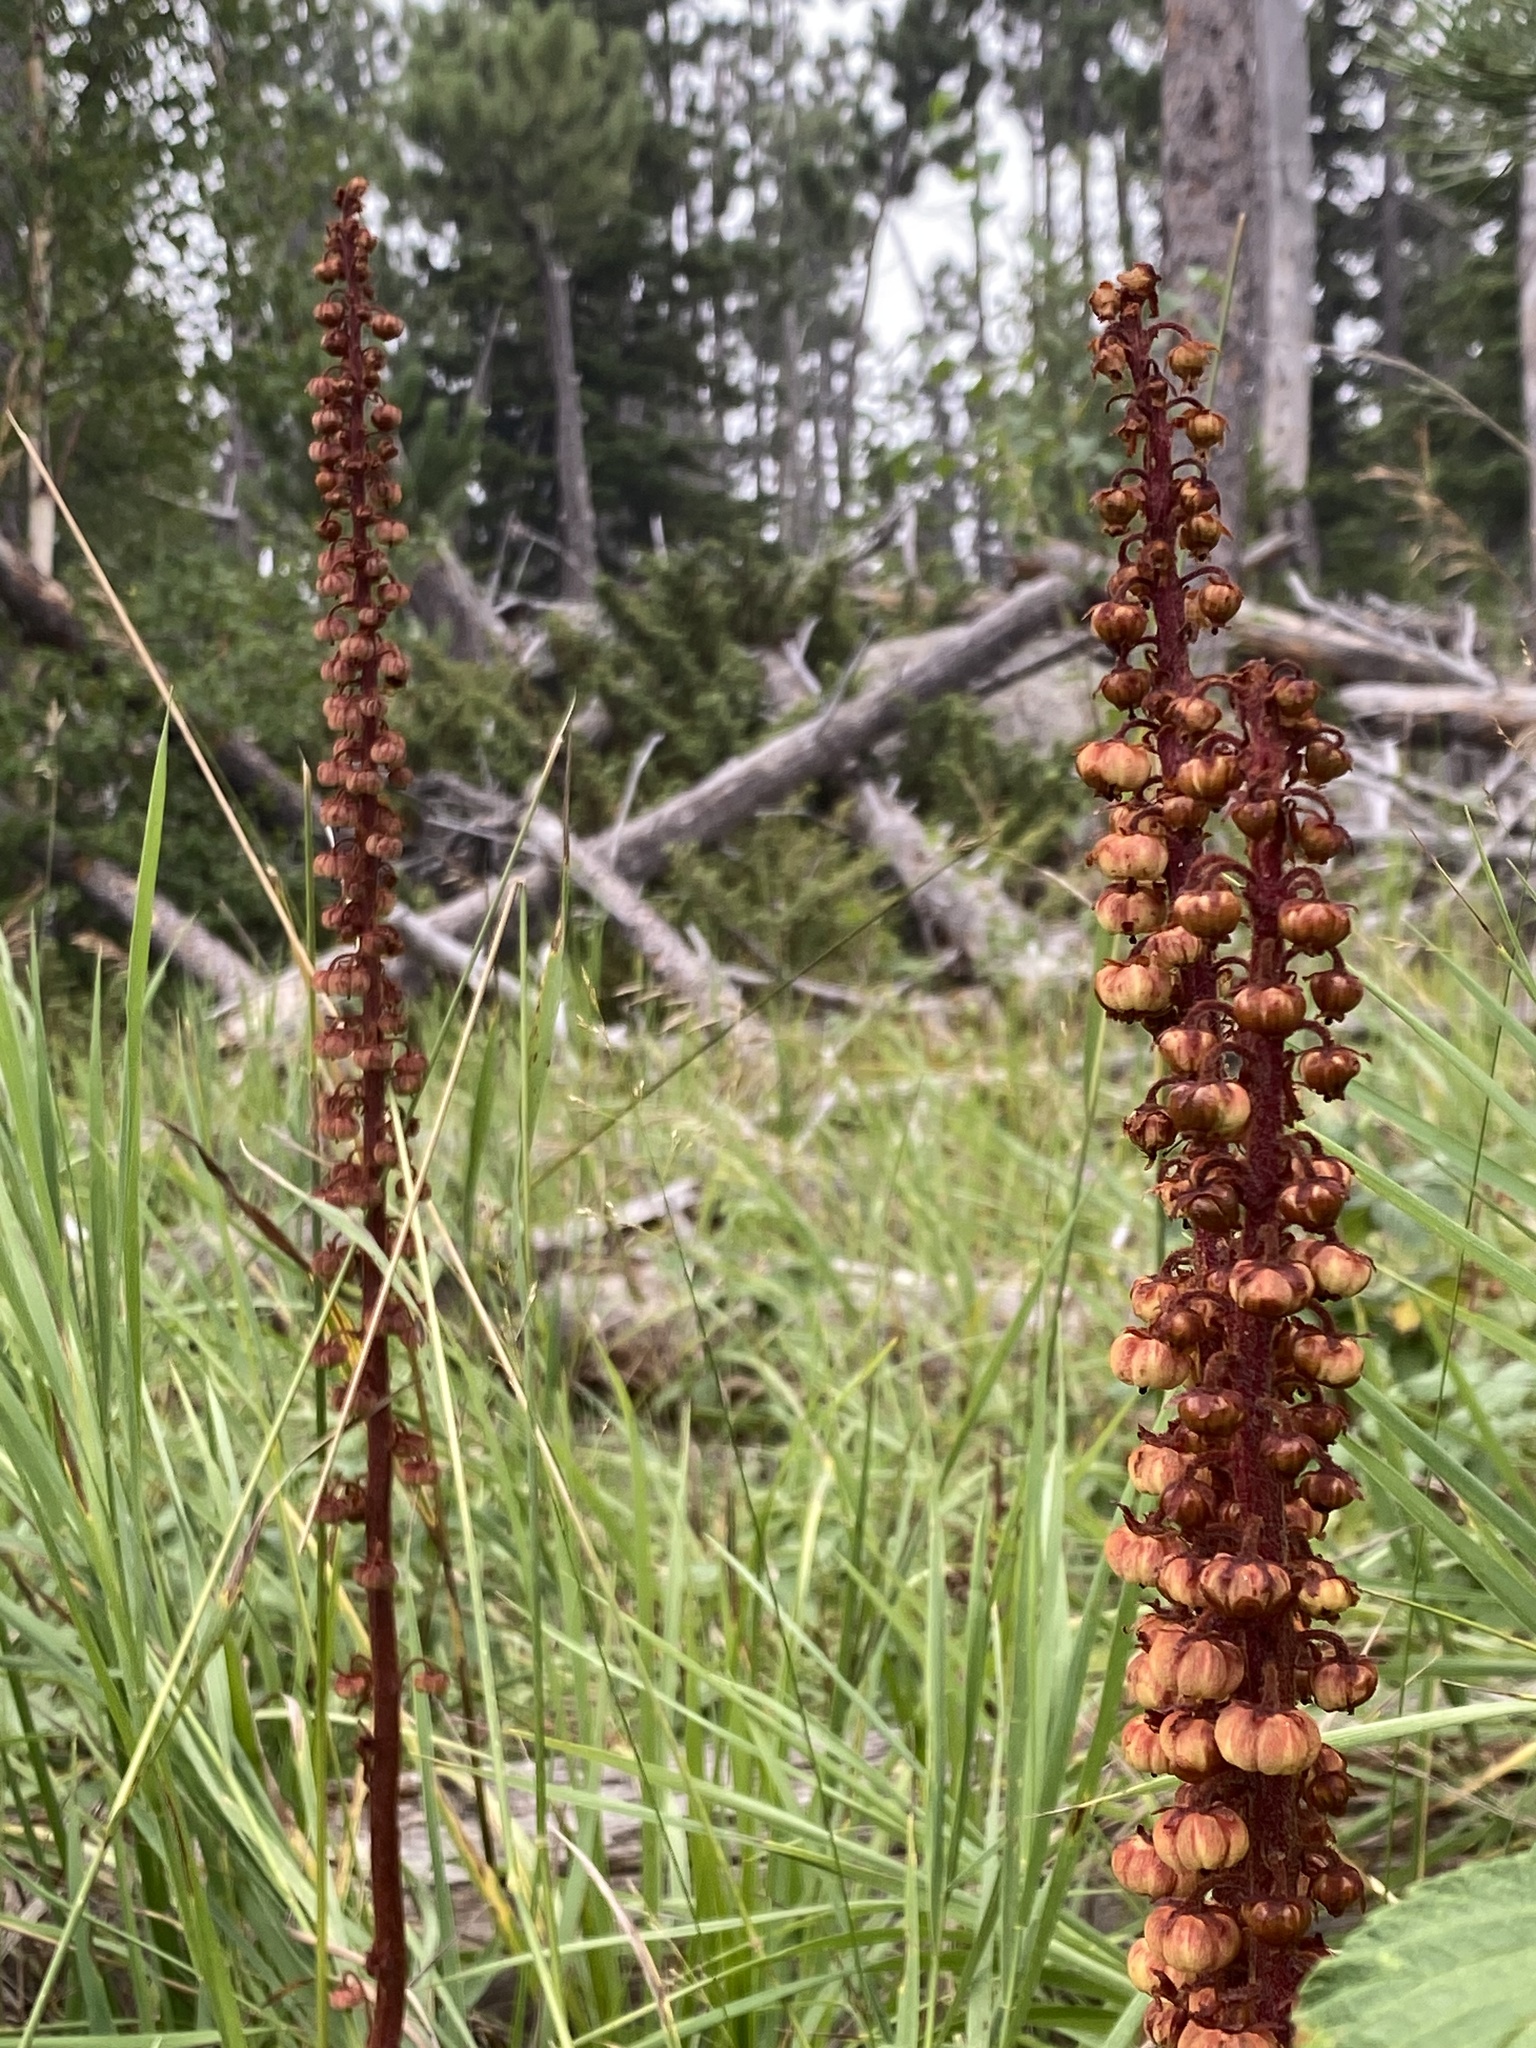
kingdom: Plantae
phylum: Tracheophyta
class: Magnoliopsida
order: Ericales
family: Ericaceae
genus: Pterospora
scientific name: Pterospora andromedea
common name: Giant bird's-nest
